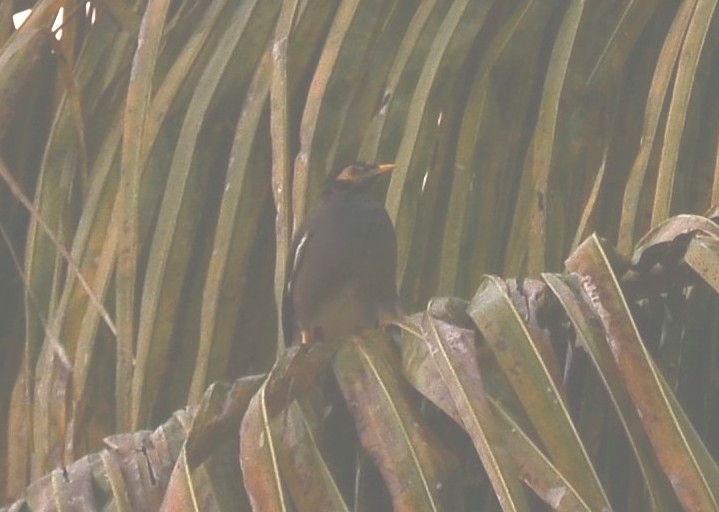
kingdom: Animalia
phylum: Chordata
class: Aves
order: Passeriformes
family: Sturnidae
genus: Acridotheres
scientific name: Acridotheres tristis
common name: Common myna
